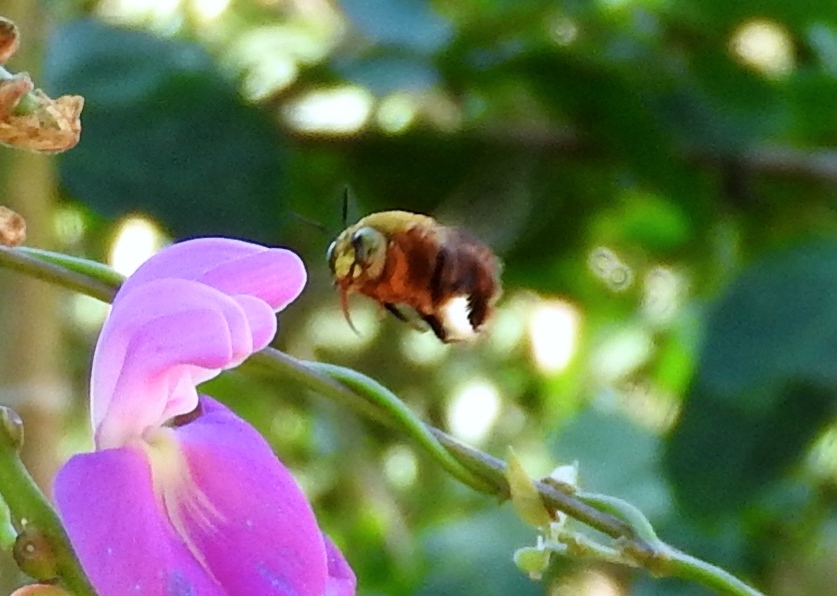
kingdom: Animalia
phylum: Arthropoda
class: Insecta
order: Hymenoptera
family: Apidae
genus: Centris
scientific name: Centris eurypatana
